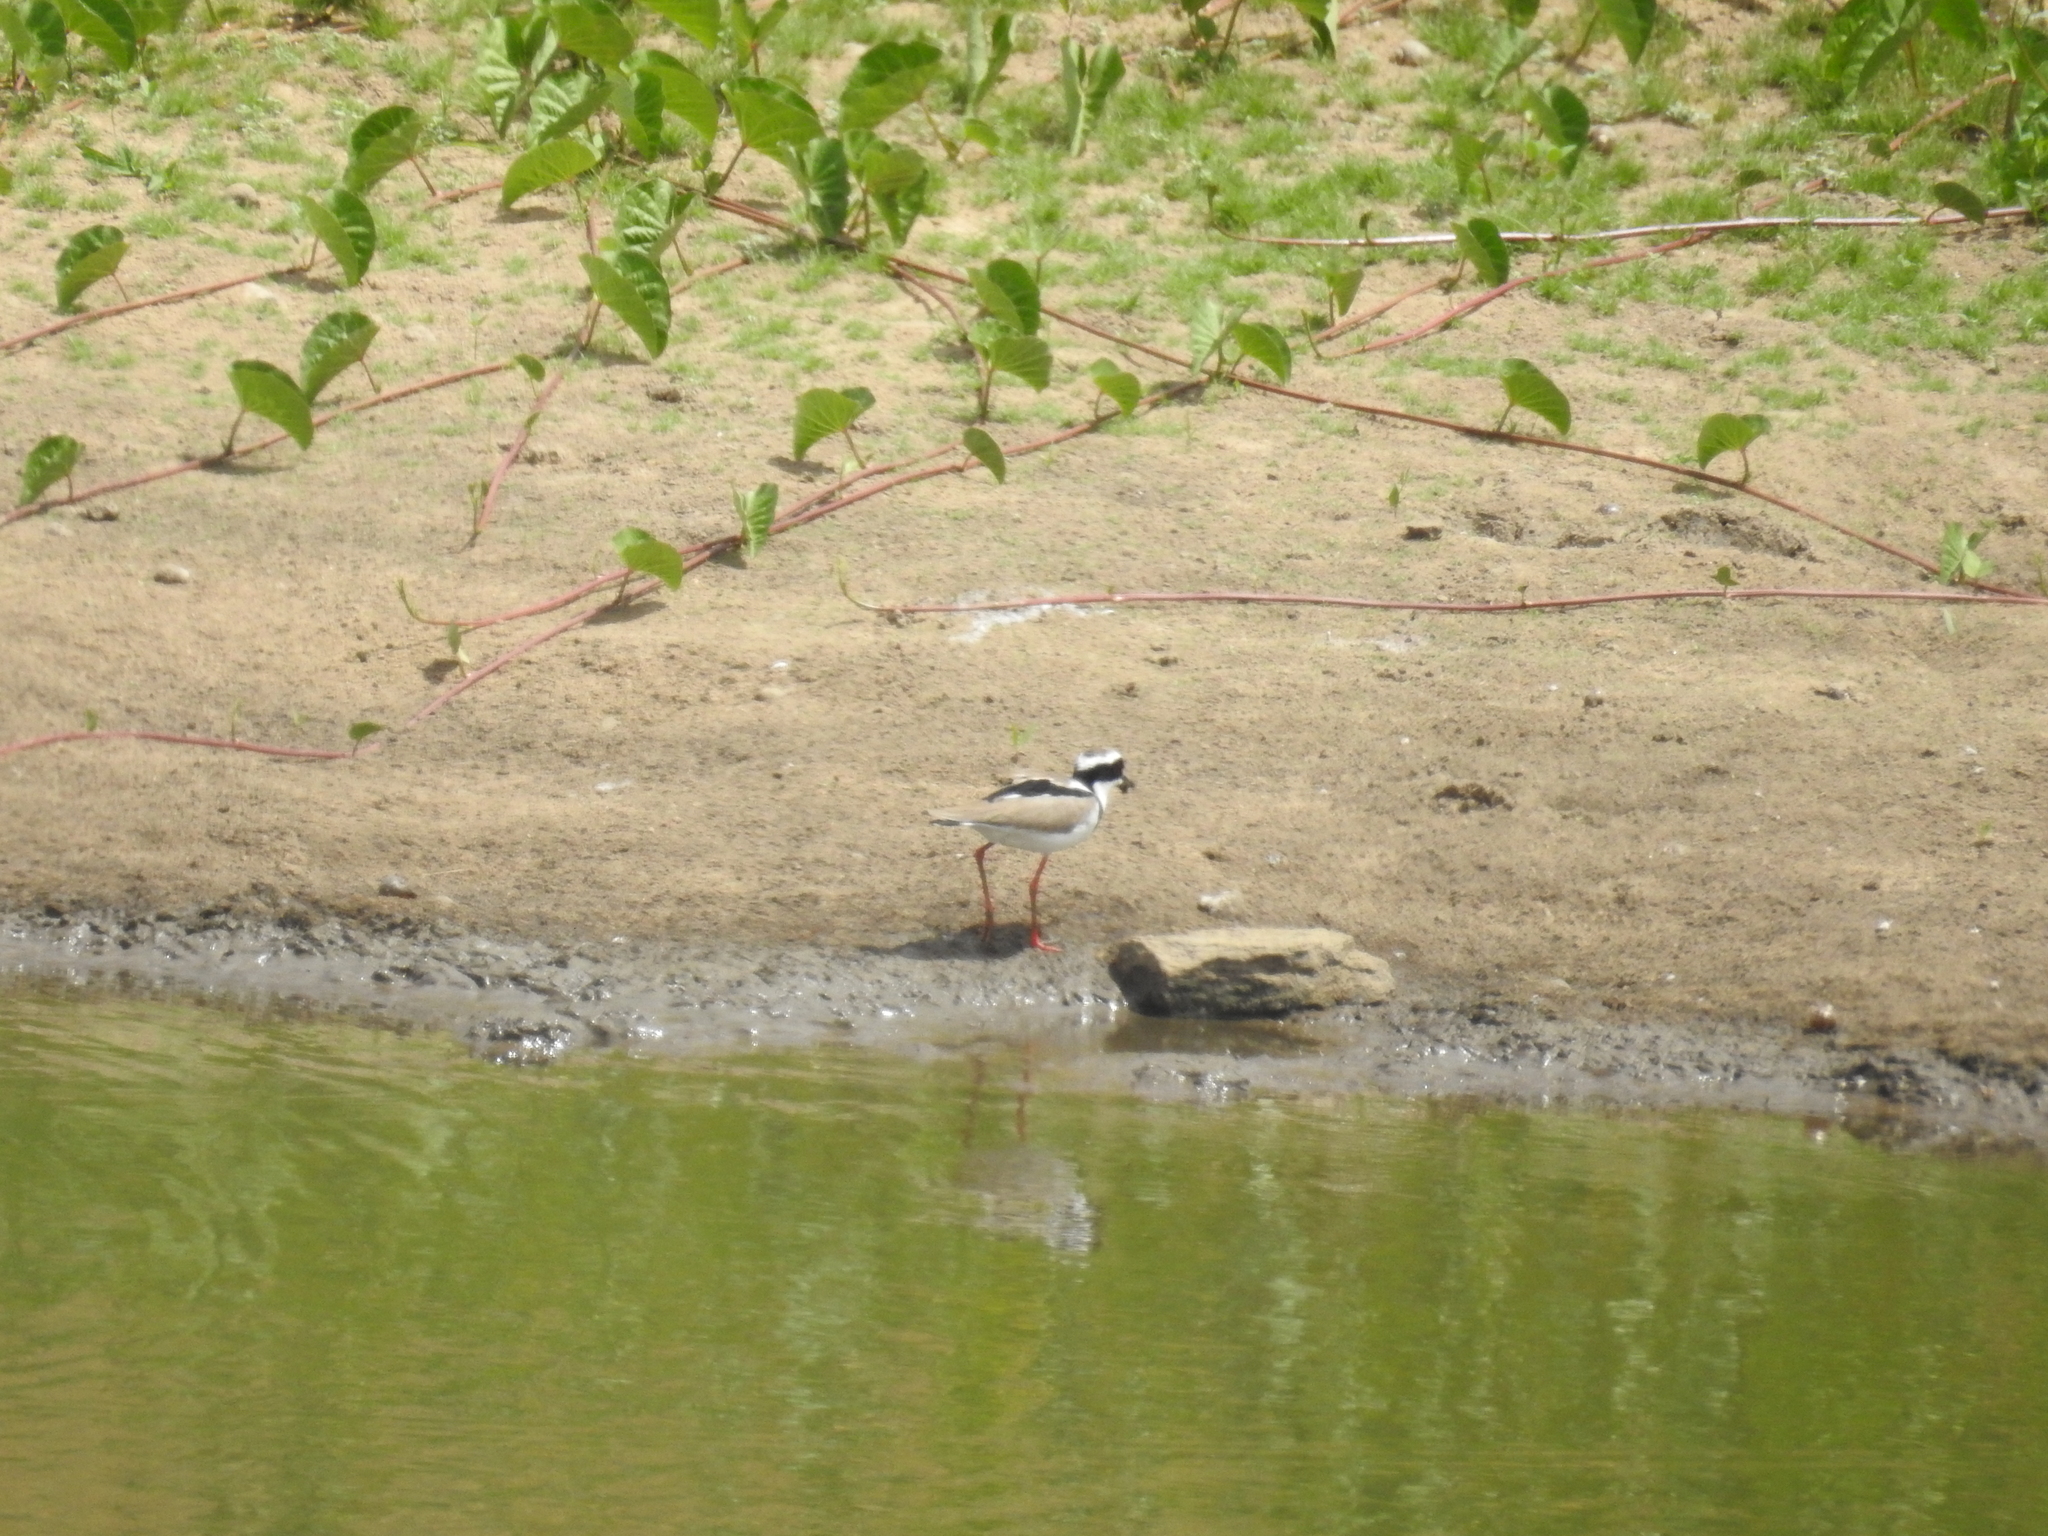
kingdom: Animalia
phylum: Chordata
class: Aves
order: Charadriiformes
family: Charadriidae
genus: Hoploxypterus
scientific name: Hoploxypterus cayanus
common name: Pied plover
